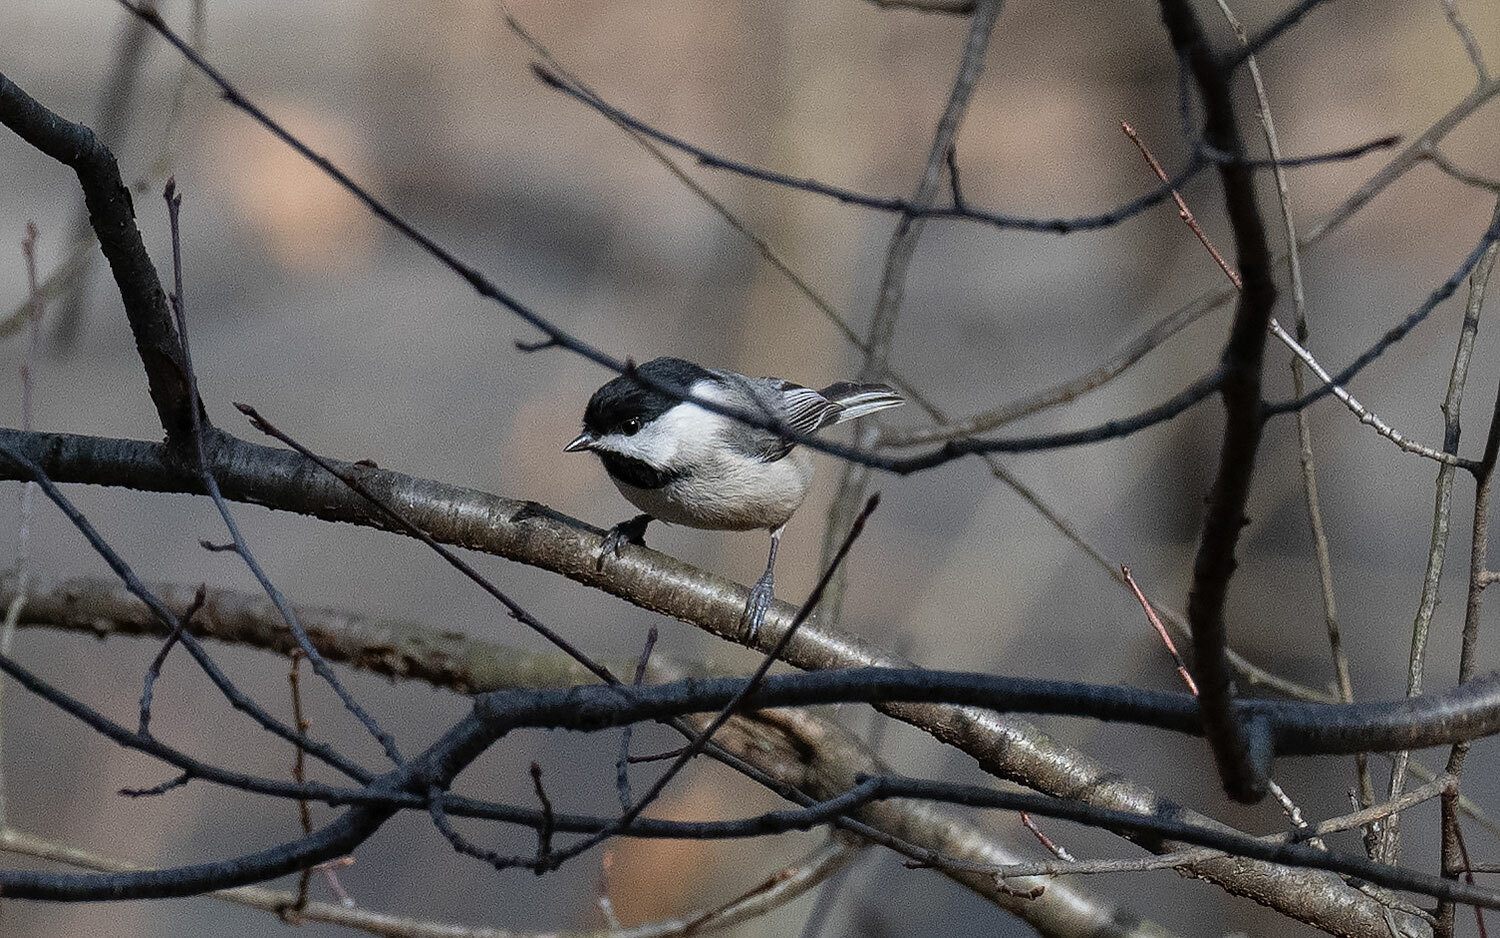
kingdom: Animalia
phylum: Chordata
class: Aves
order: Passeriformes
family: Paridae
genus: Poecile
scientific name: Poecile carolinensis
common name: Carolina chickadee
